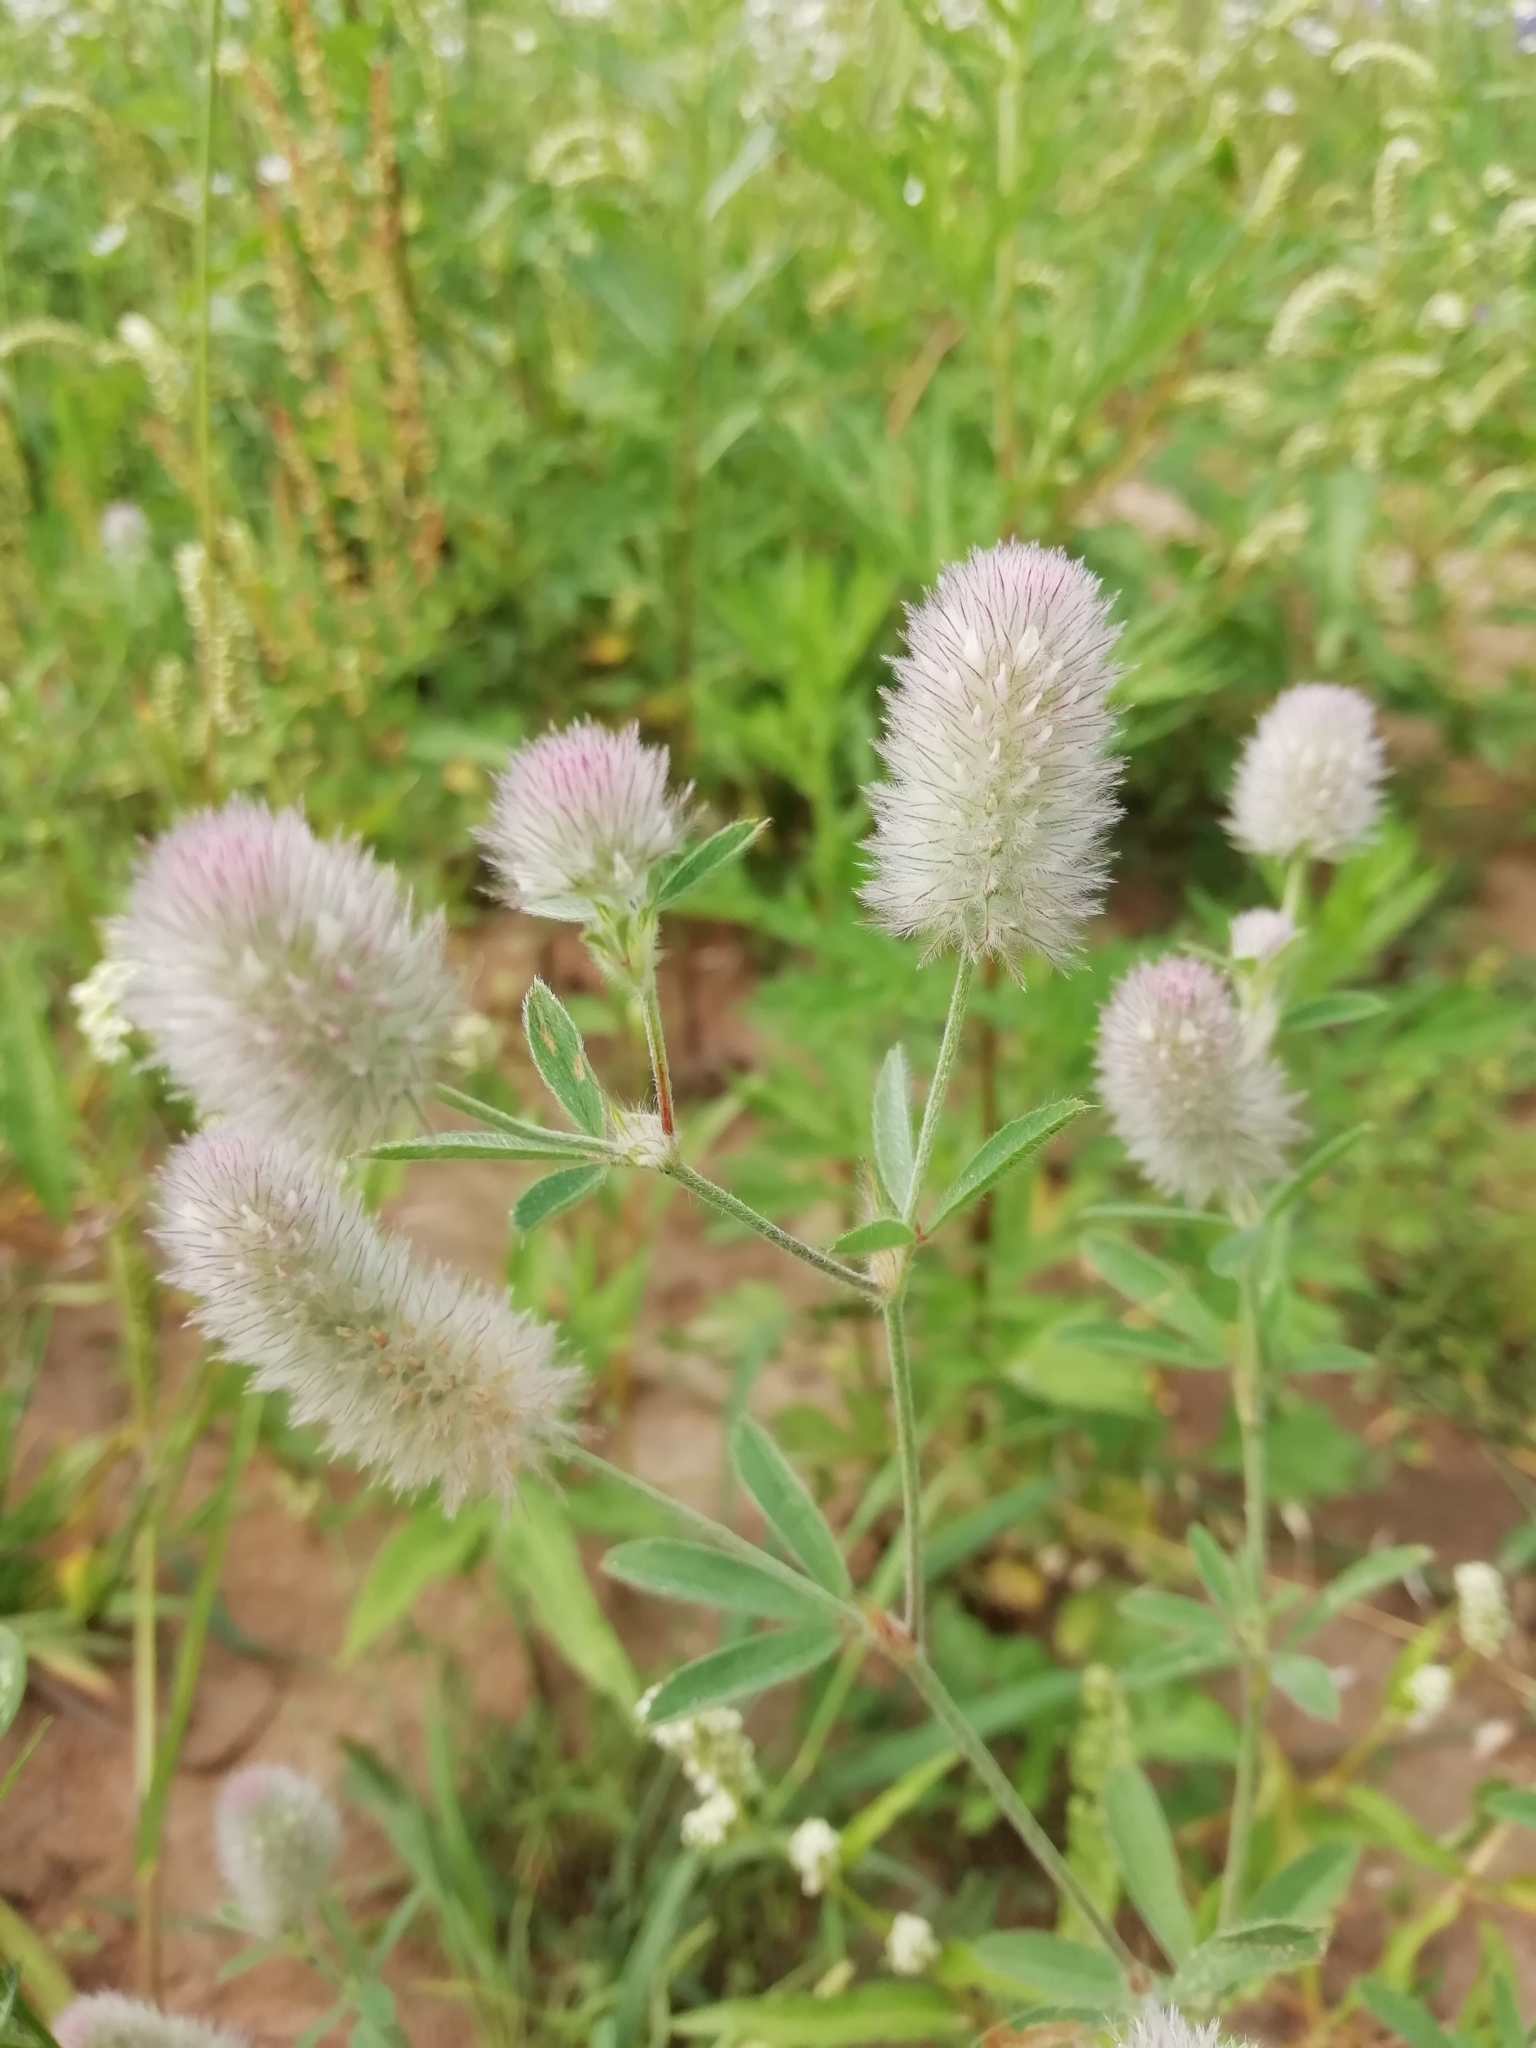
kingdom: Plantae
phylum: Tracheophyta
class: Magnoliopsida
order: Fabales
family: Fabaceae
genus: Trifolium
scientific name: Trifolium arvense
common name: Hare's-foot clover
